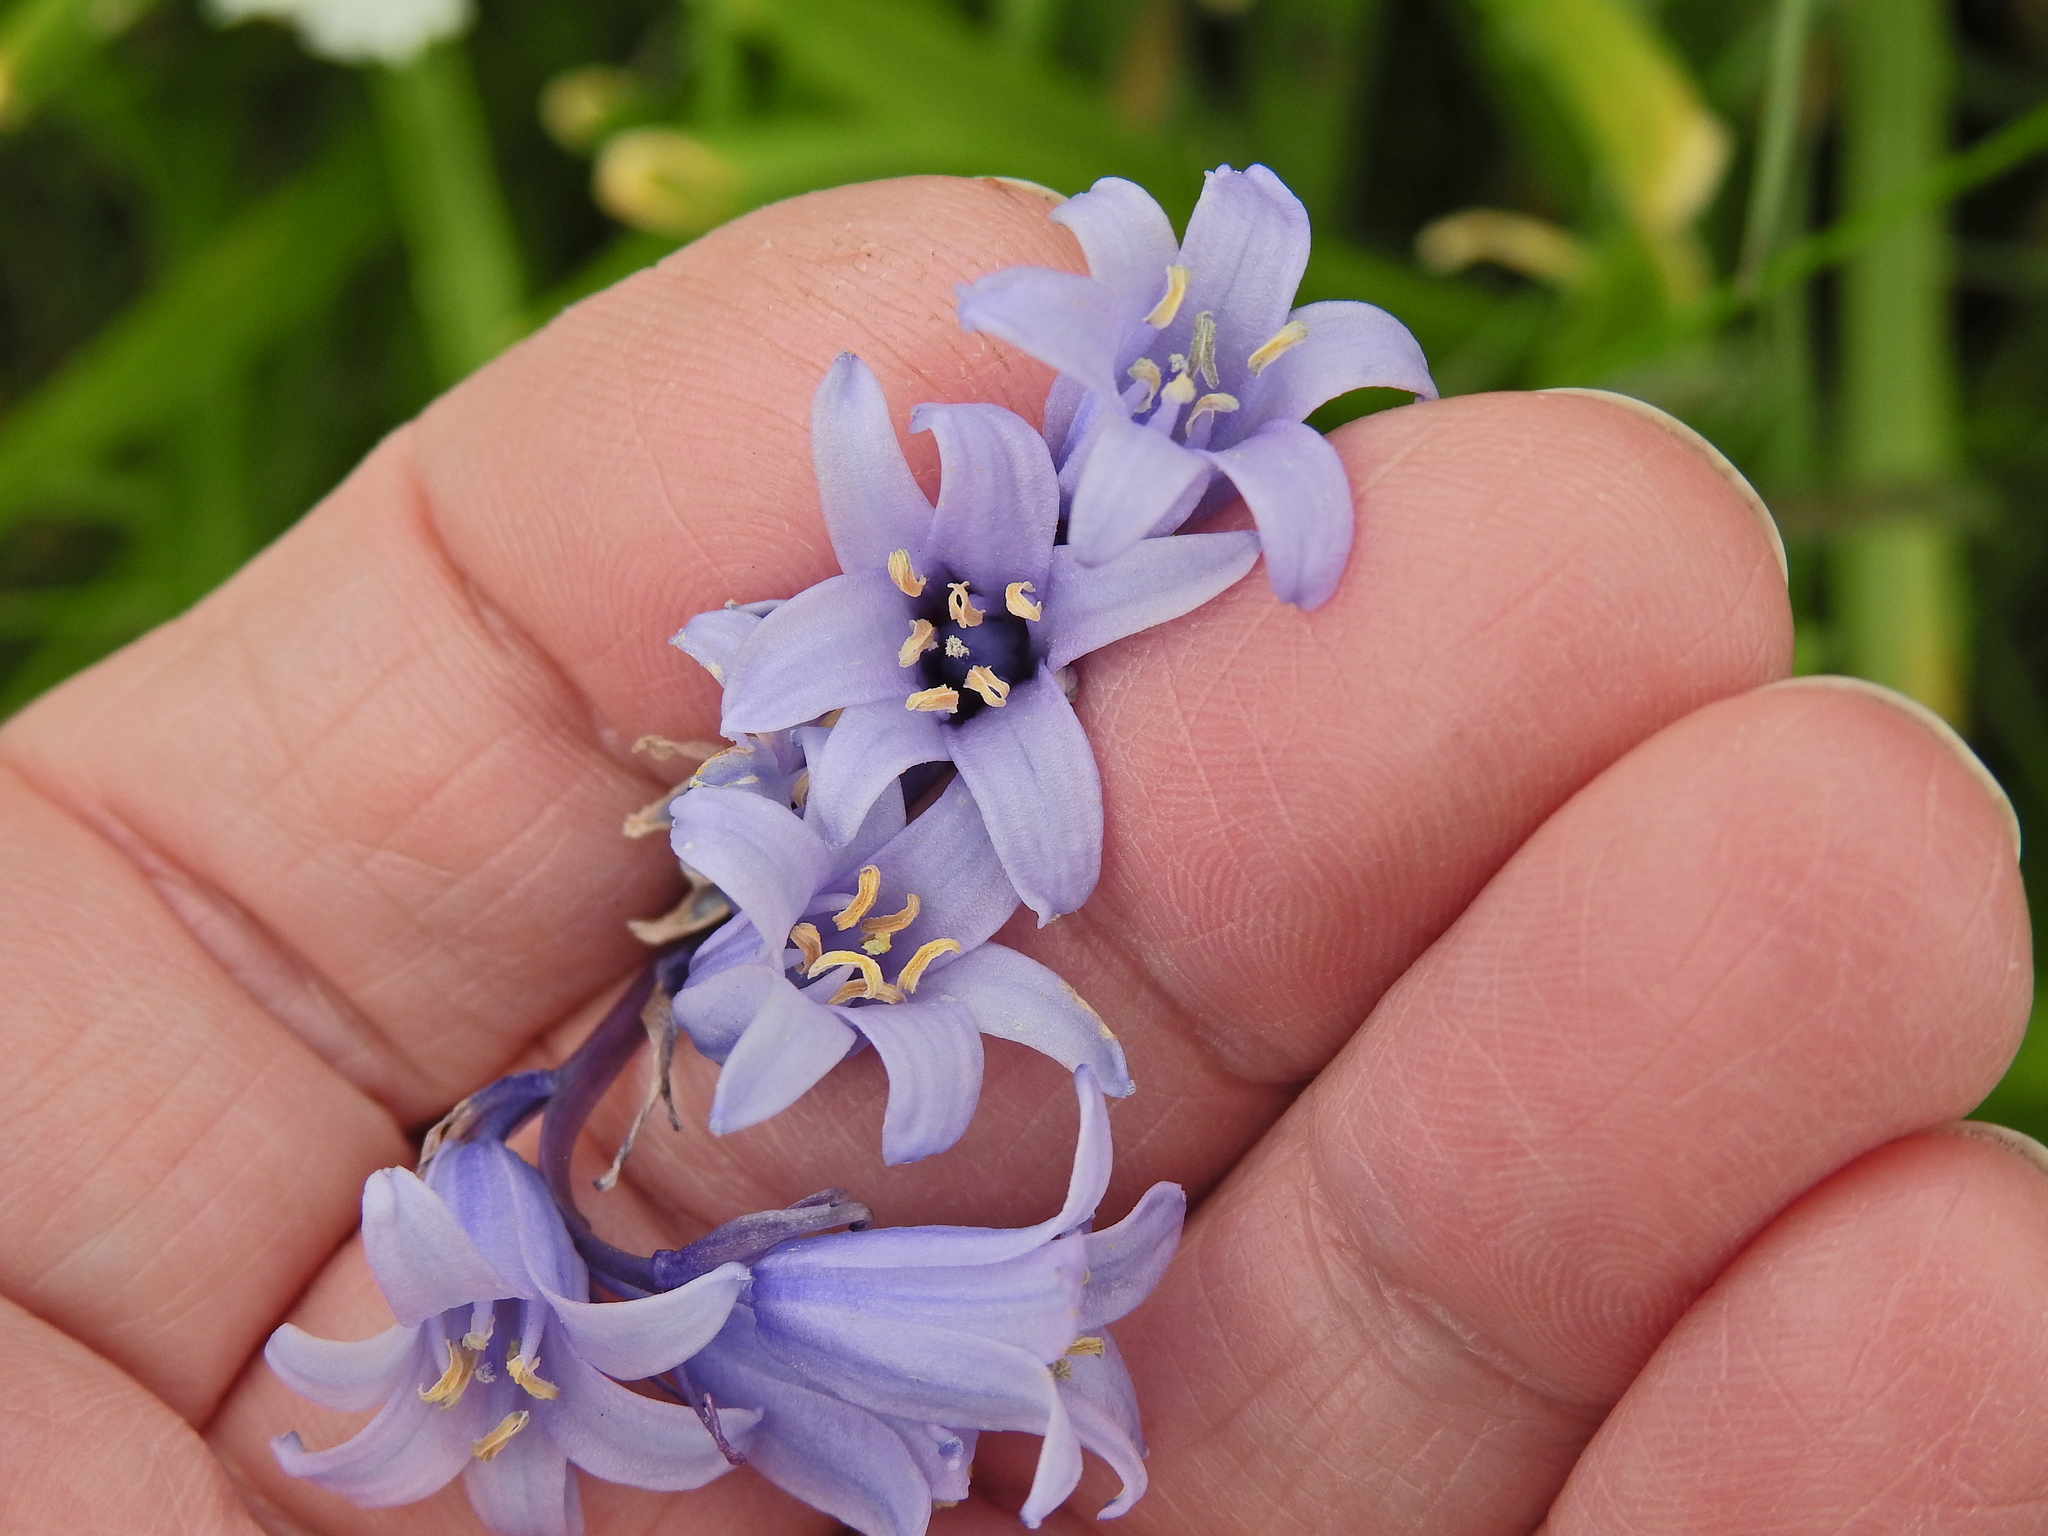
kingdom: Plantae
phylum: Tracheophyta
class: Liliopsida
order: Asparagales
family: Asparagaceae
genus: Hyacinthoides
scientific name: Hyacinthoides massartiana
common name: Hyacinthoides
